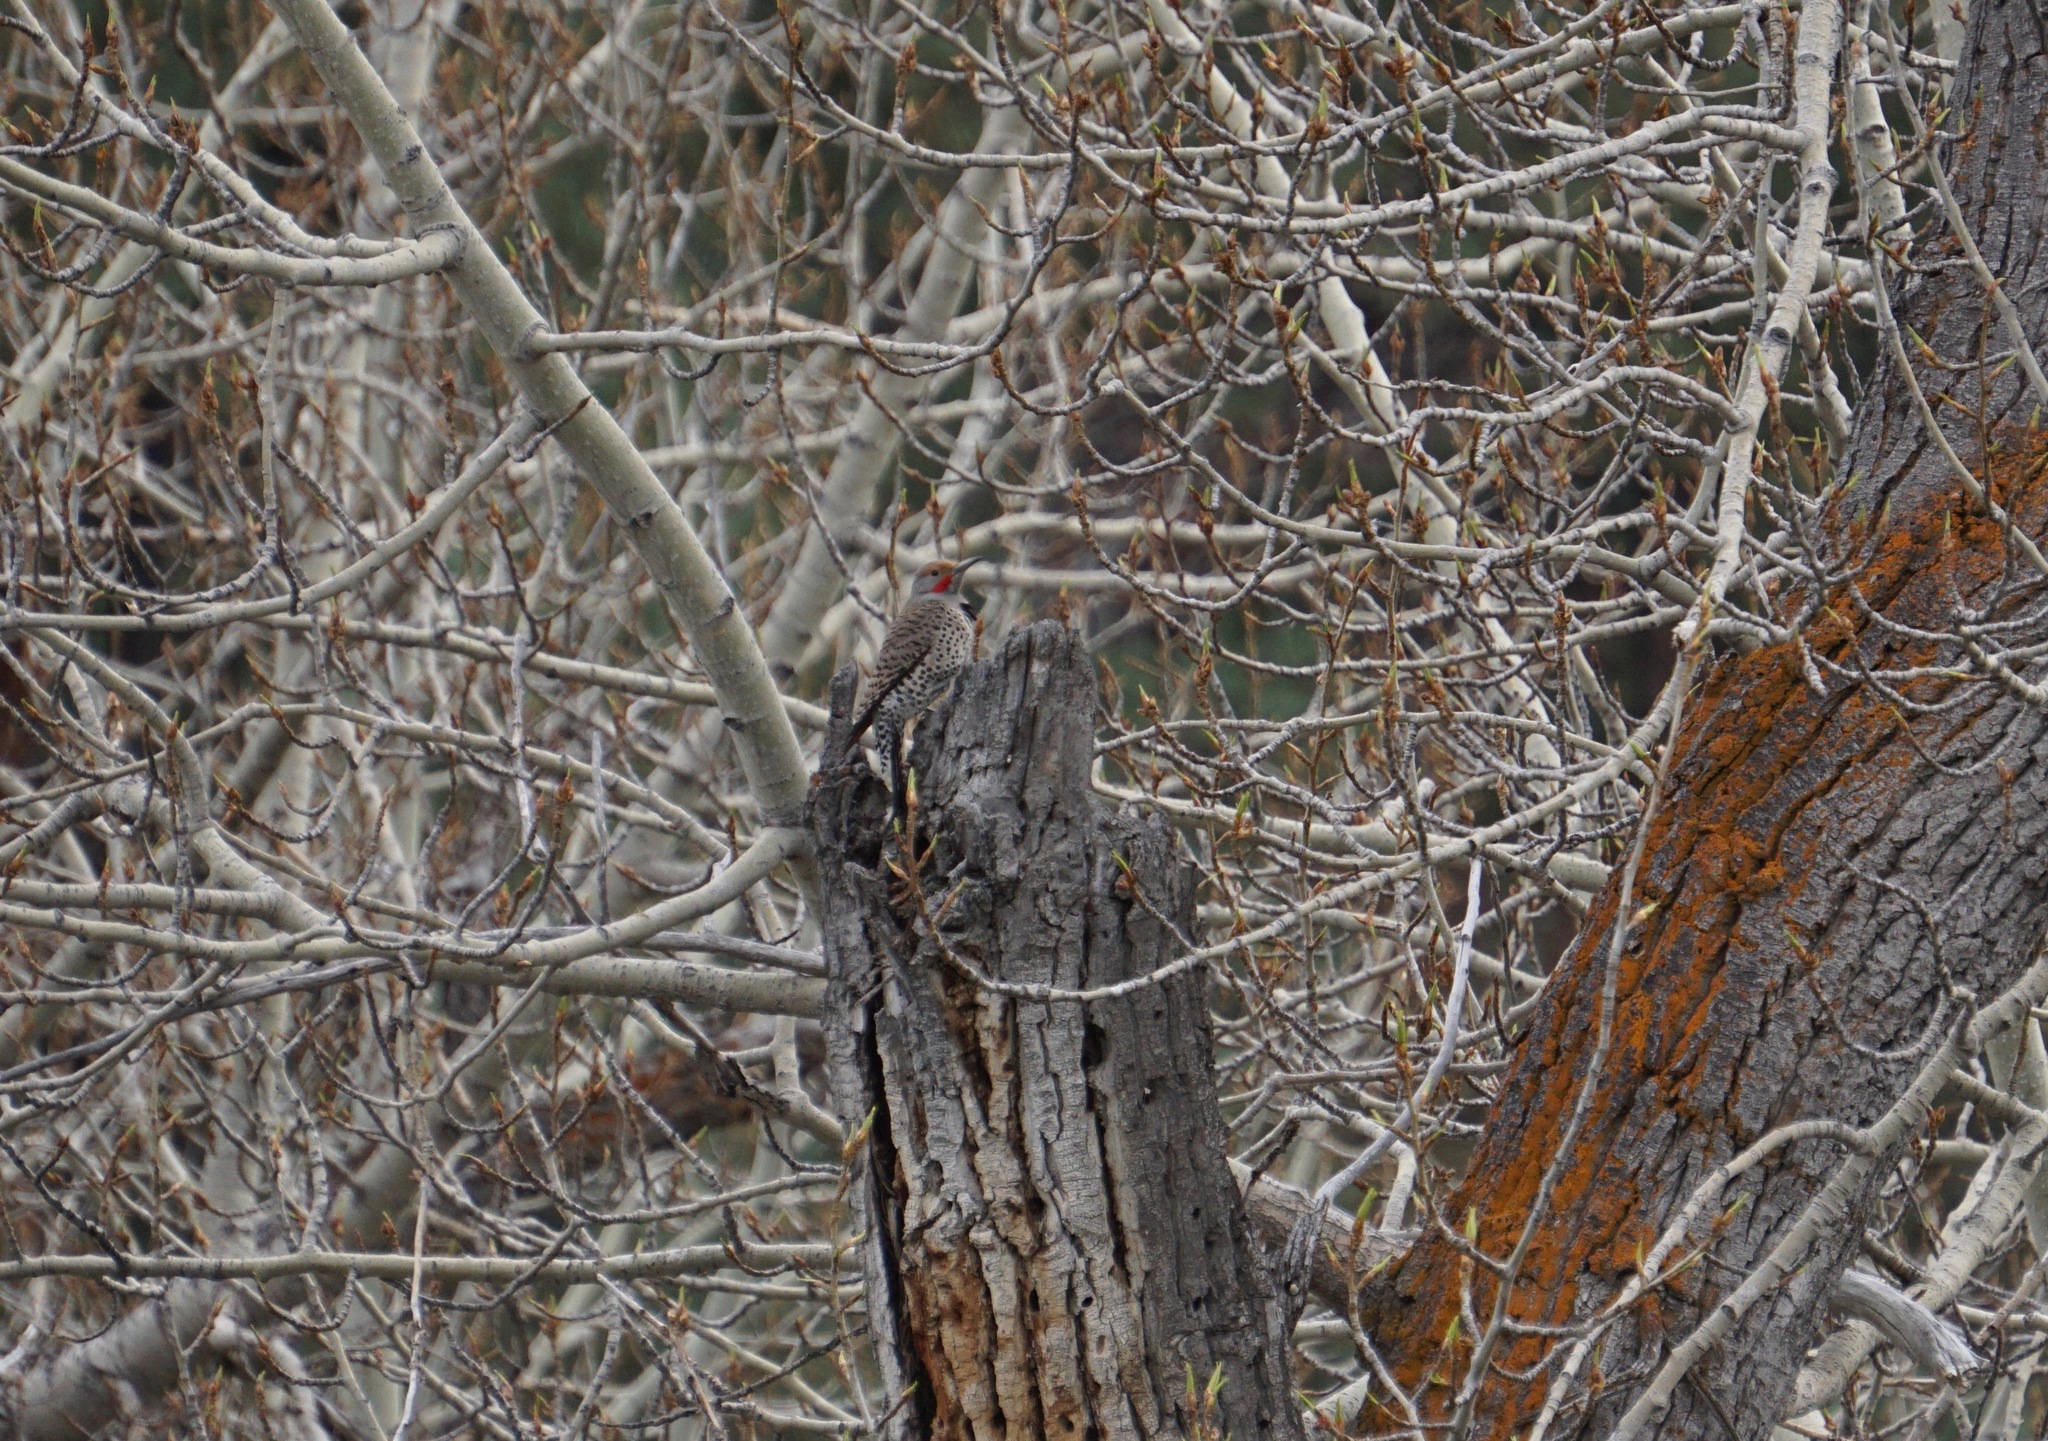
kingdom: Animalia
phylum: Chordata
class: Aves
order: Piciformes
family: Picidae
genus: Colaptes
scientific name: Colaptes auratus
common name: Northern flicker
